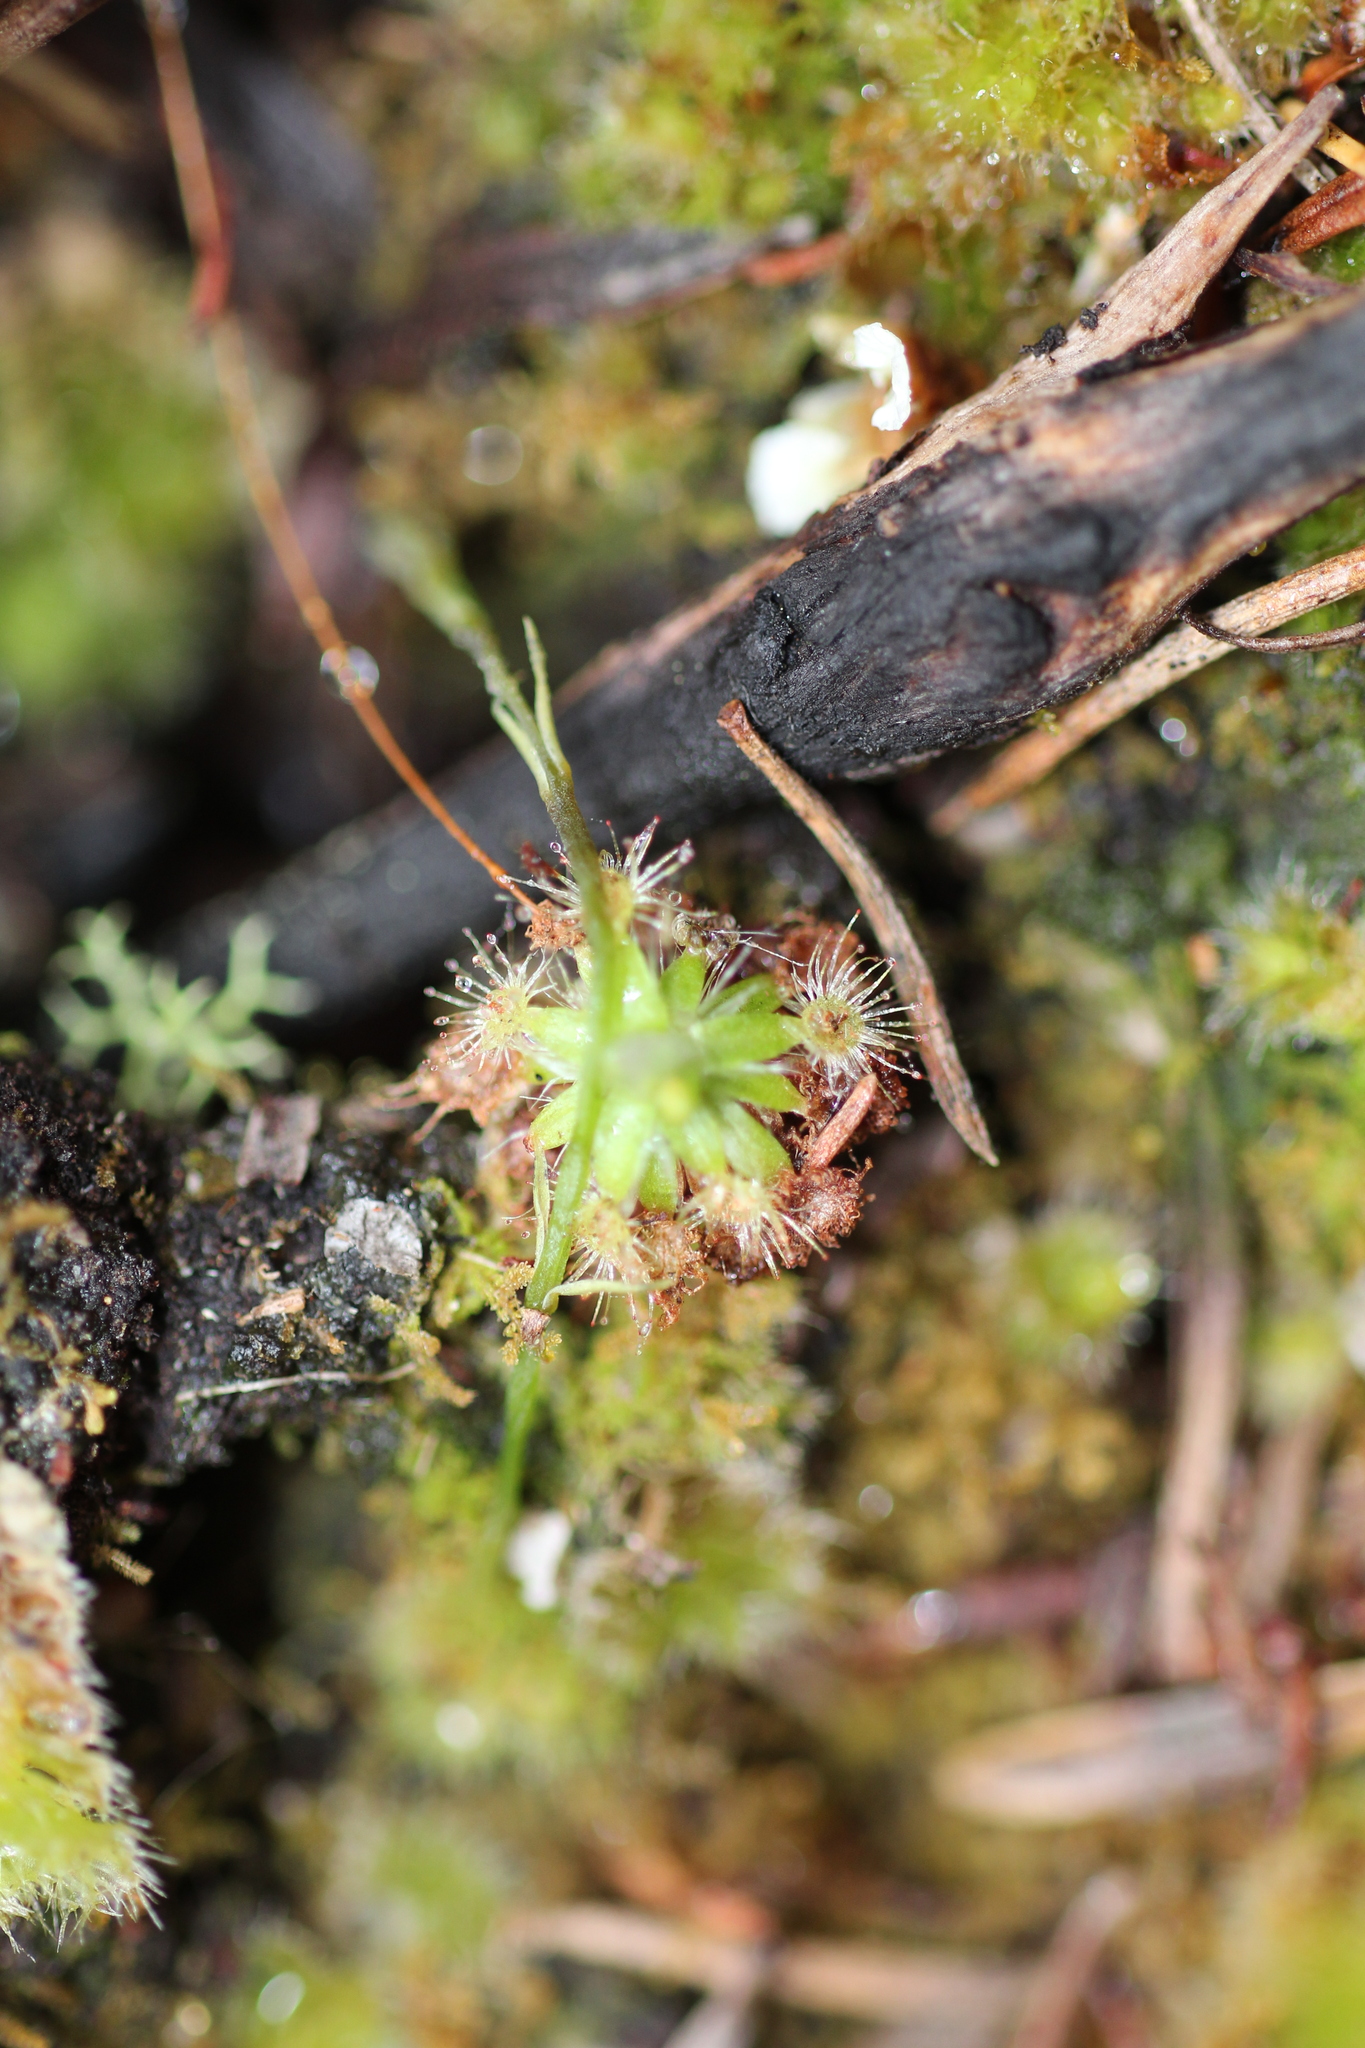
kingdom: Plantae
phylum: Tracheophyta
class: Magnoliopsida
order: Caryophyllales
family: Droseraceae
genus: Drosera
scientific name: Drosera pulchella
